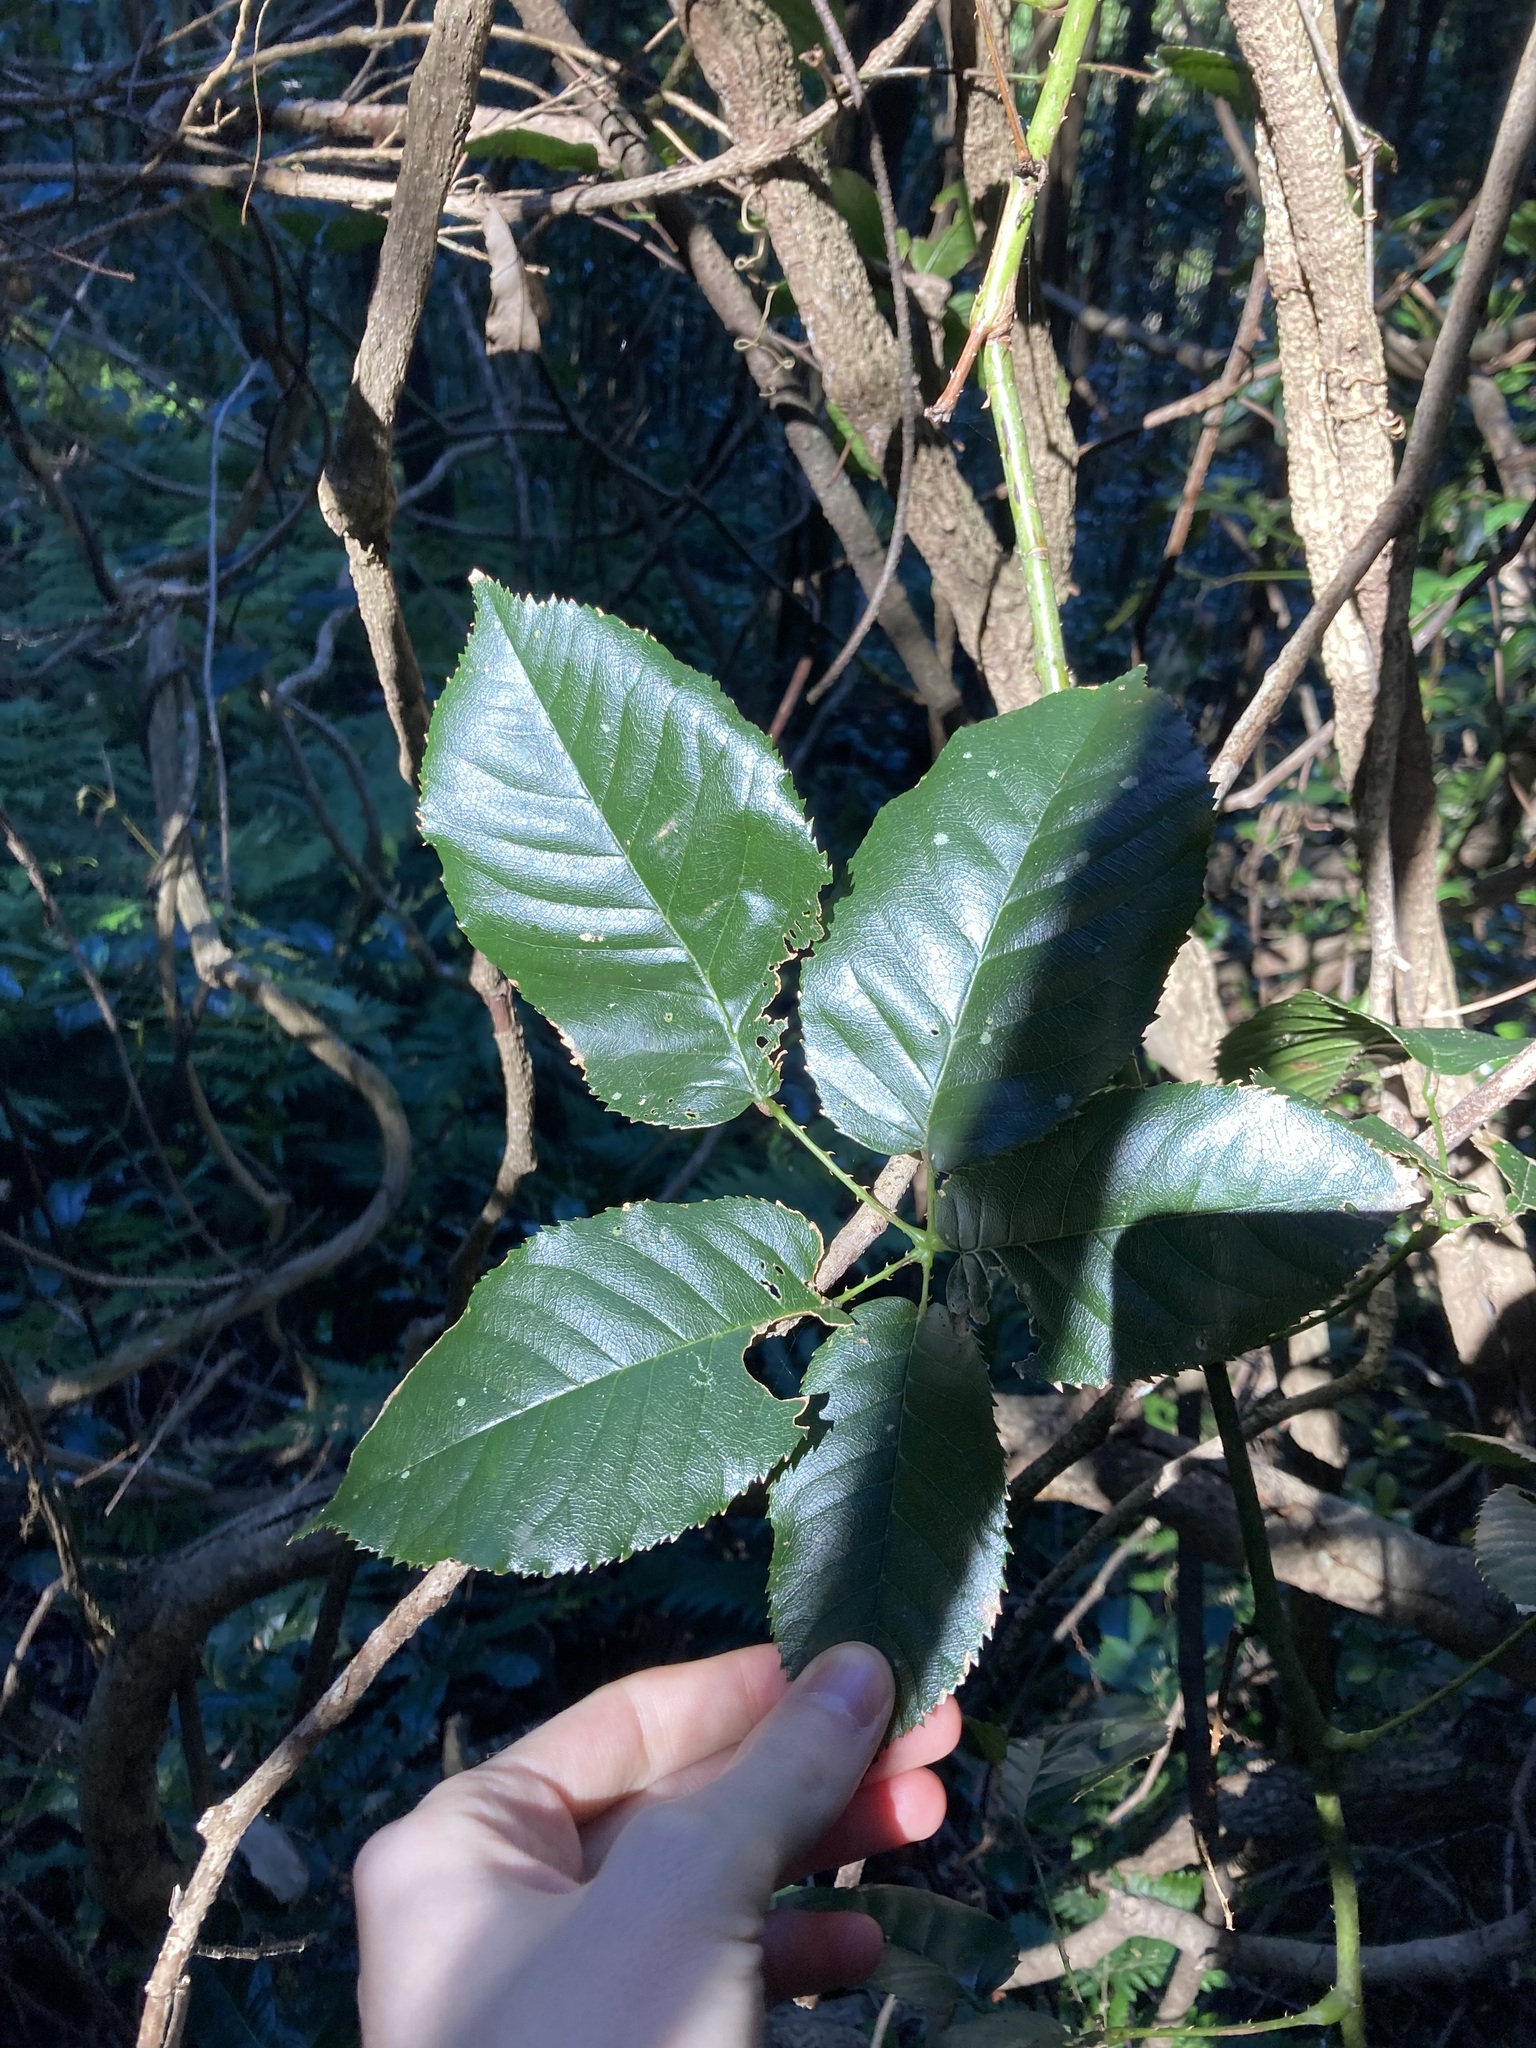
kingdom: Plantae
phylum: Tracheophyta
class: Magnoliopsida
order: Rosales
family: Rosaceae
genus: Rubus
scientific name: Rubus nebulosus
